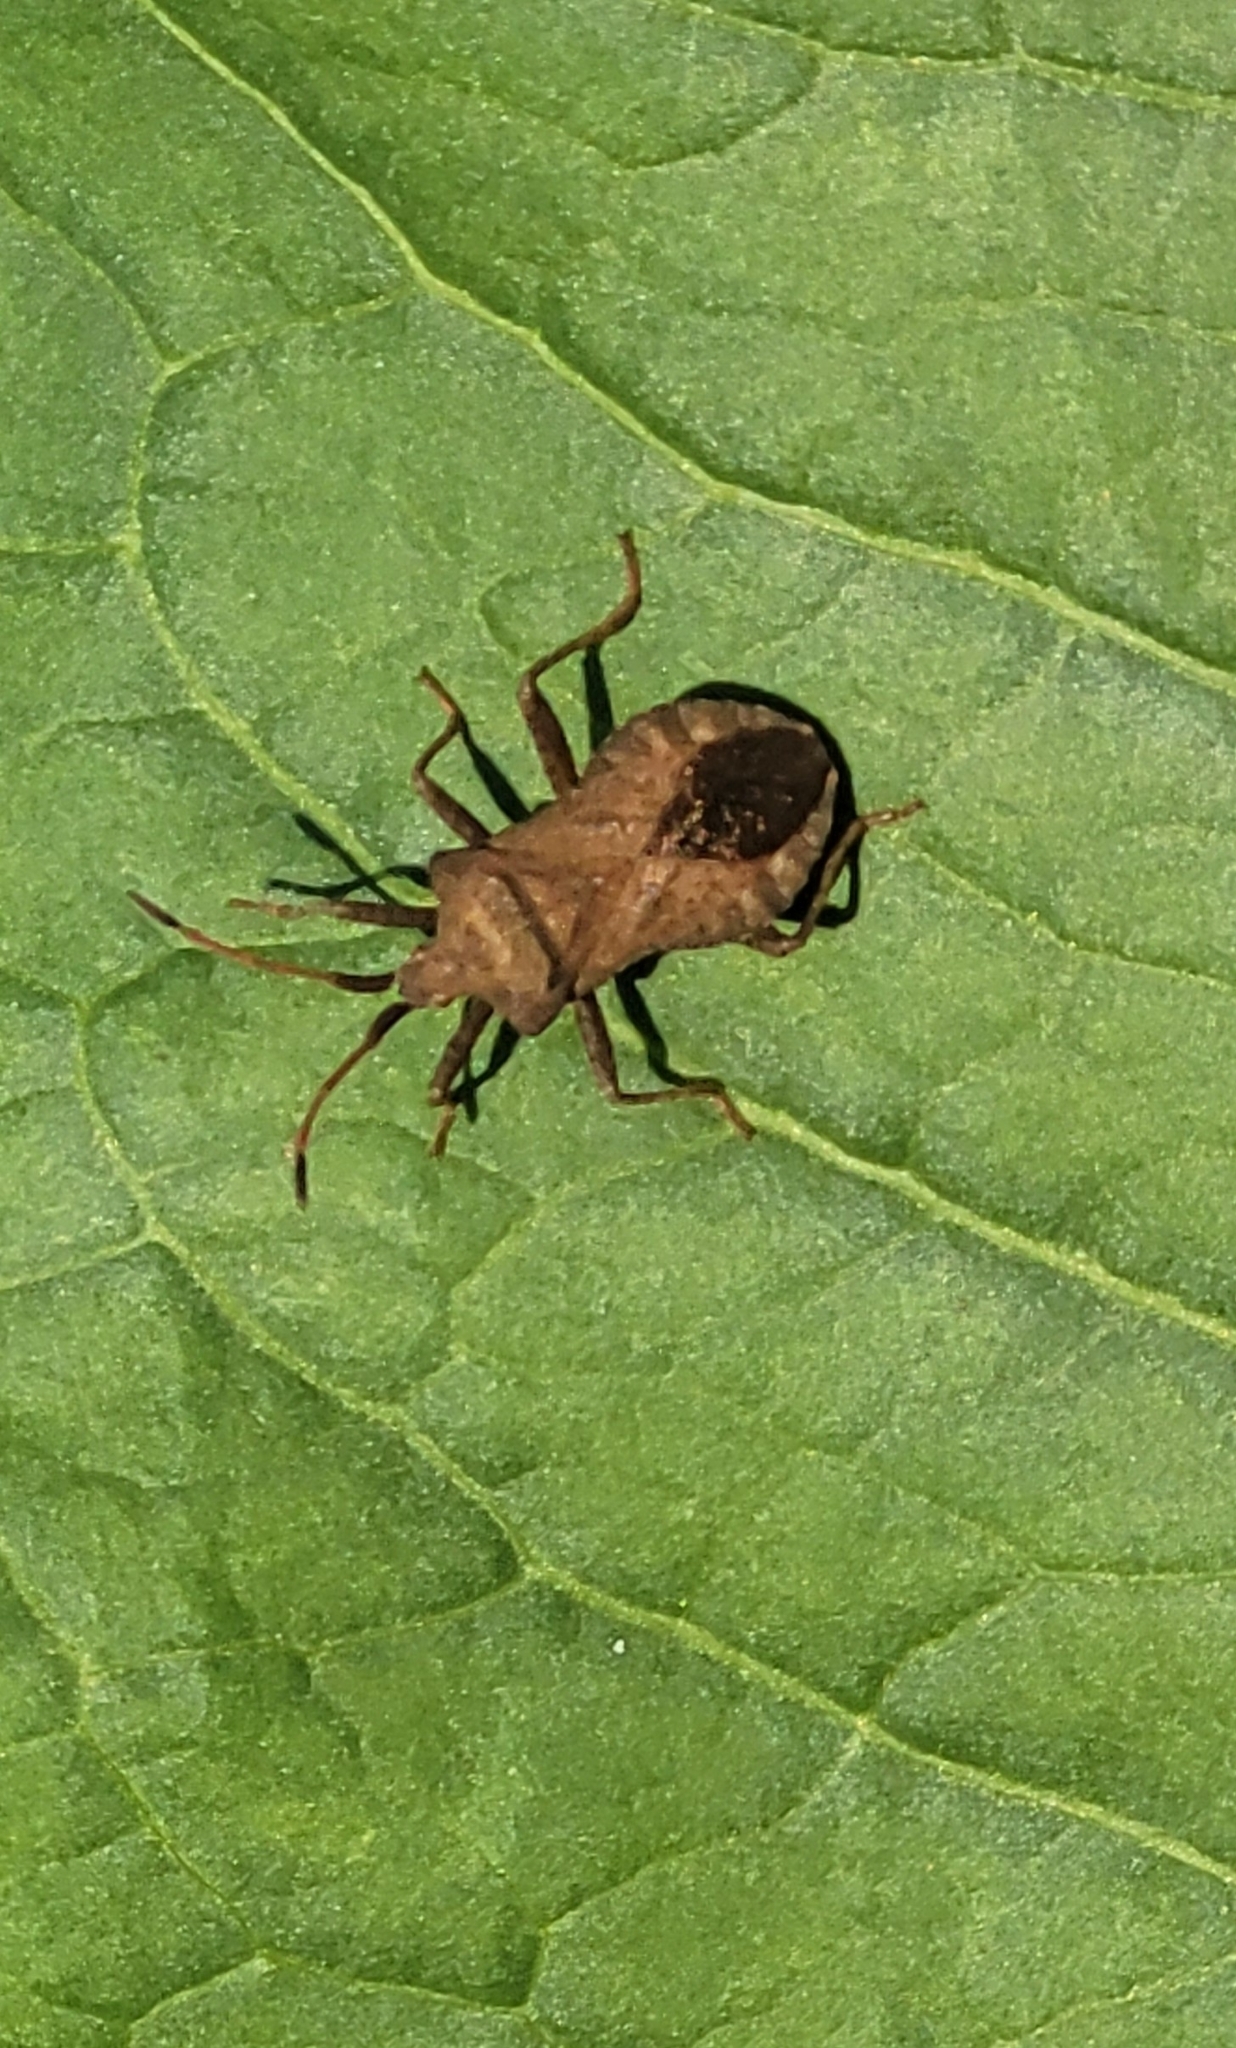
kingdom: Animalia
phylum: Arthropoda
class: Insecta
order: Hemiptera
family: Coreidae
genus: Coreus
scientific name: Coreus marginatus
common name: Dock bug
